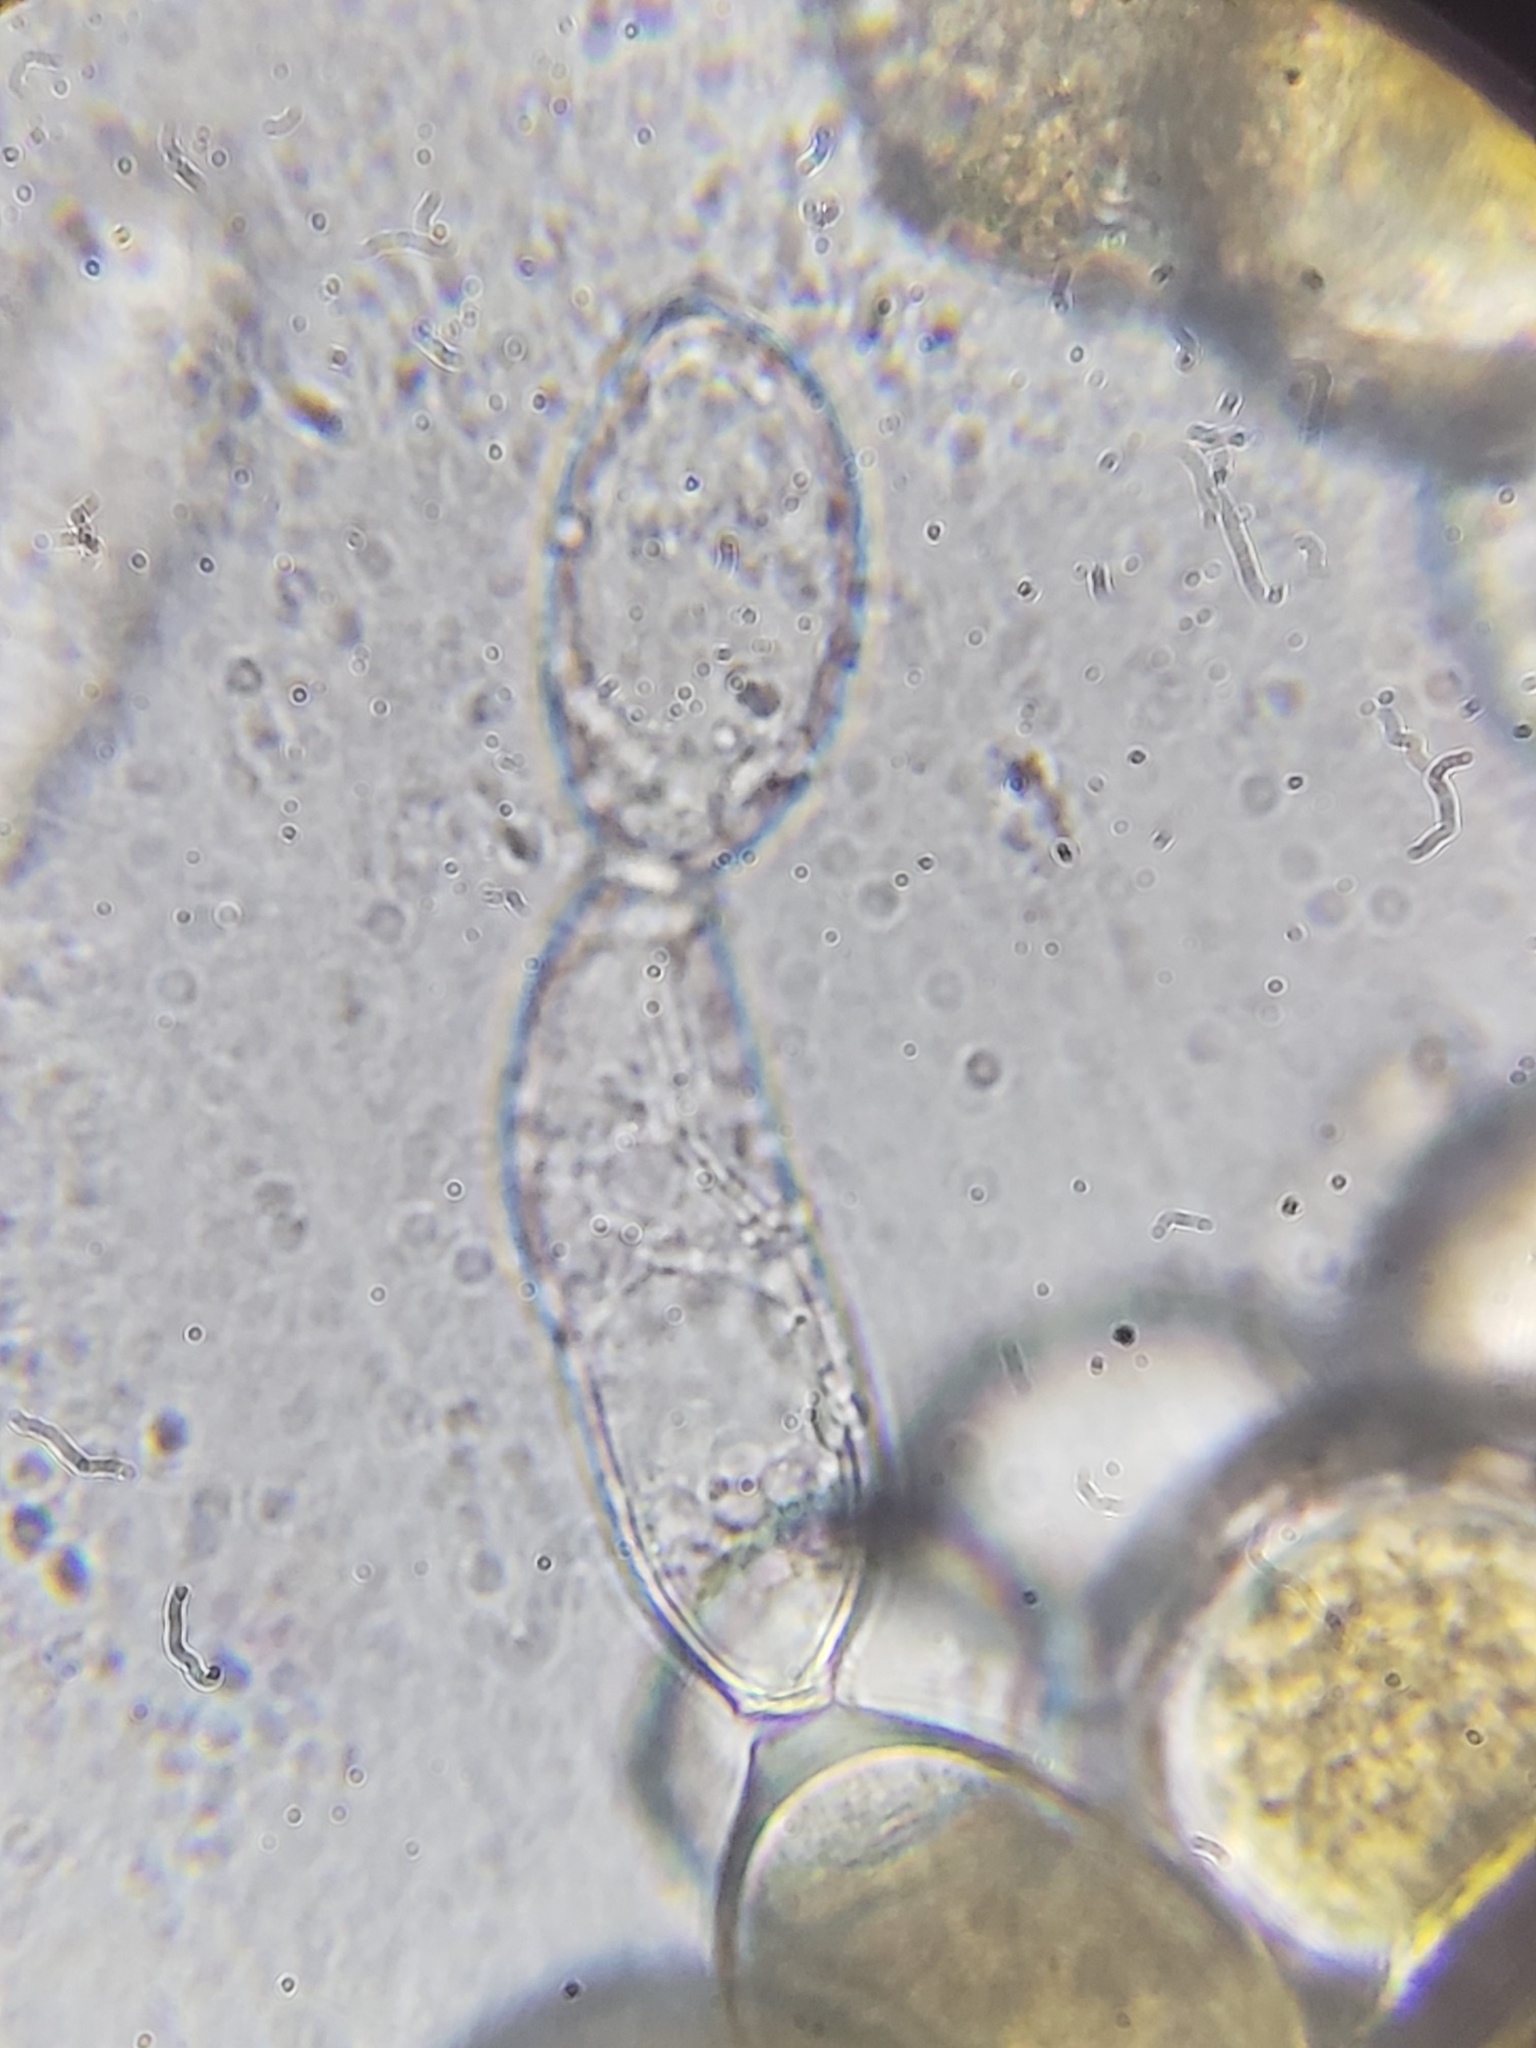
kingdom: Fungi
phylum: Ascomycota
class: Pezizomycetes
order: Pezizales
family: Pyronemataceae
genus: Sphaerosporium
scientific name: Sphaerosporium lignatile
